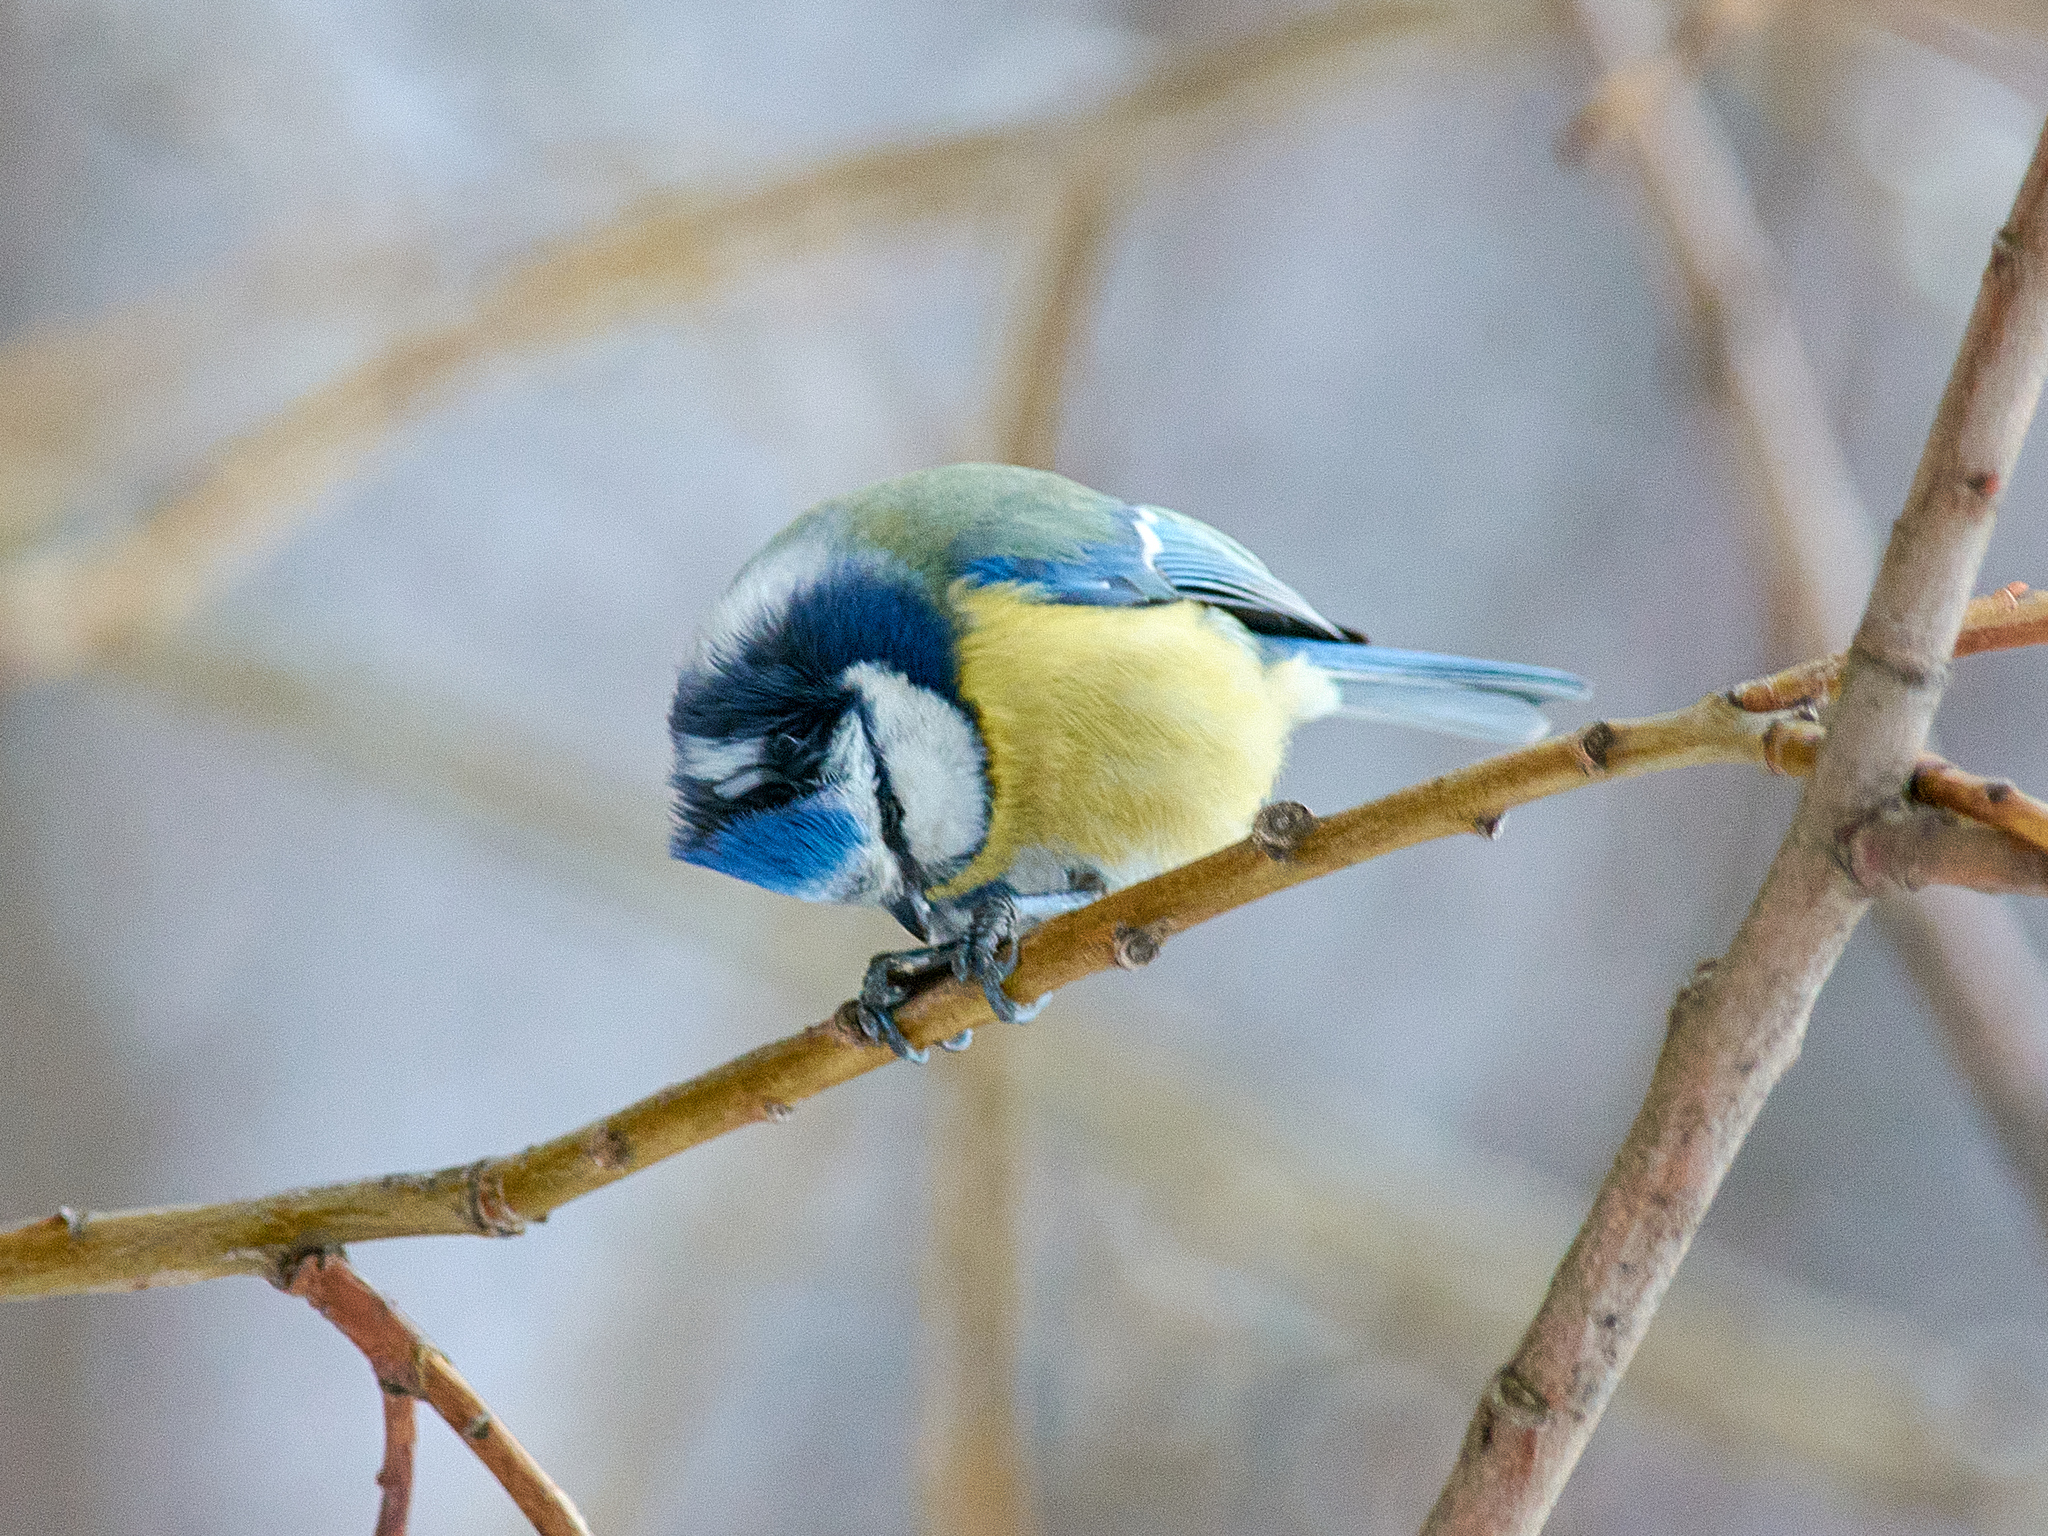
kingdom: Animalia
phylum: Chordata
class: Aves
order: Passeriformes
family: Paridae
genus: Cyanistes
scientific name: Cyanistes caeruleus
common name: Eurasian blue tit
